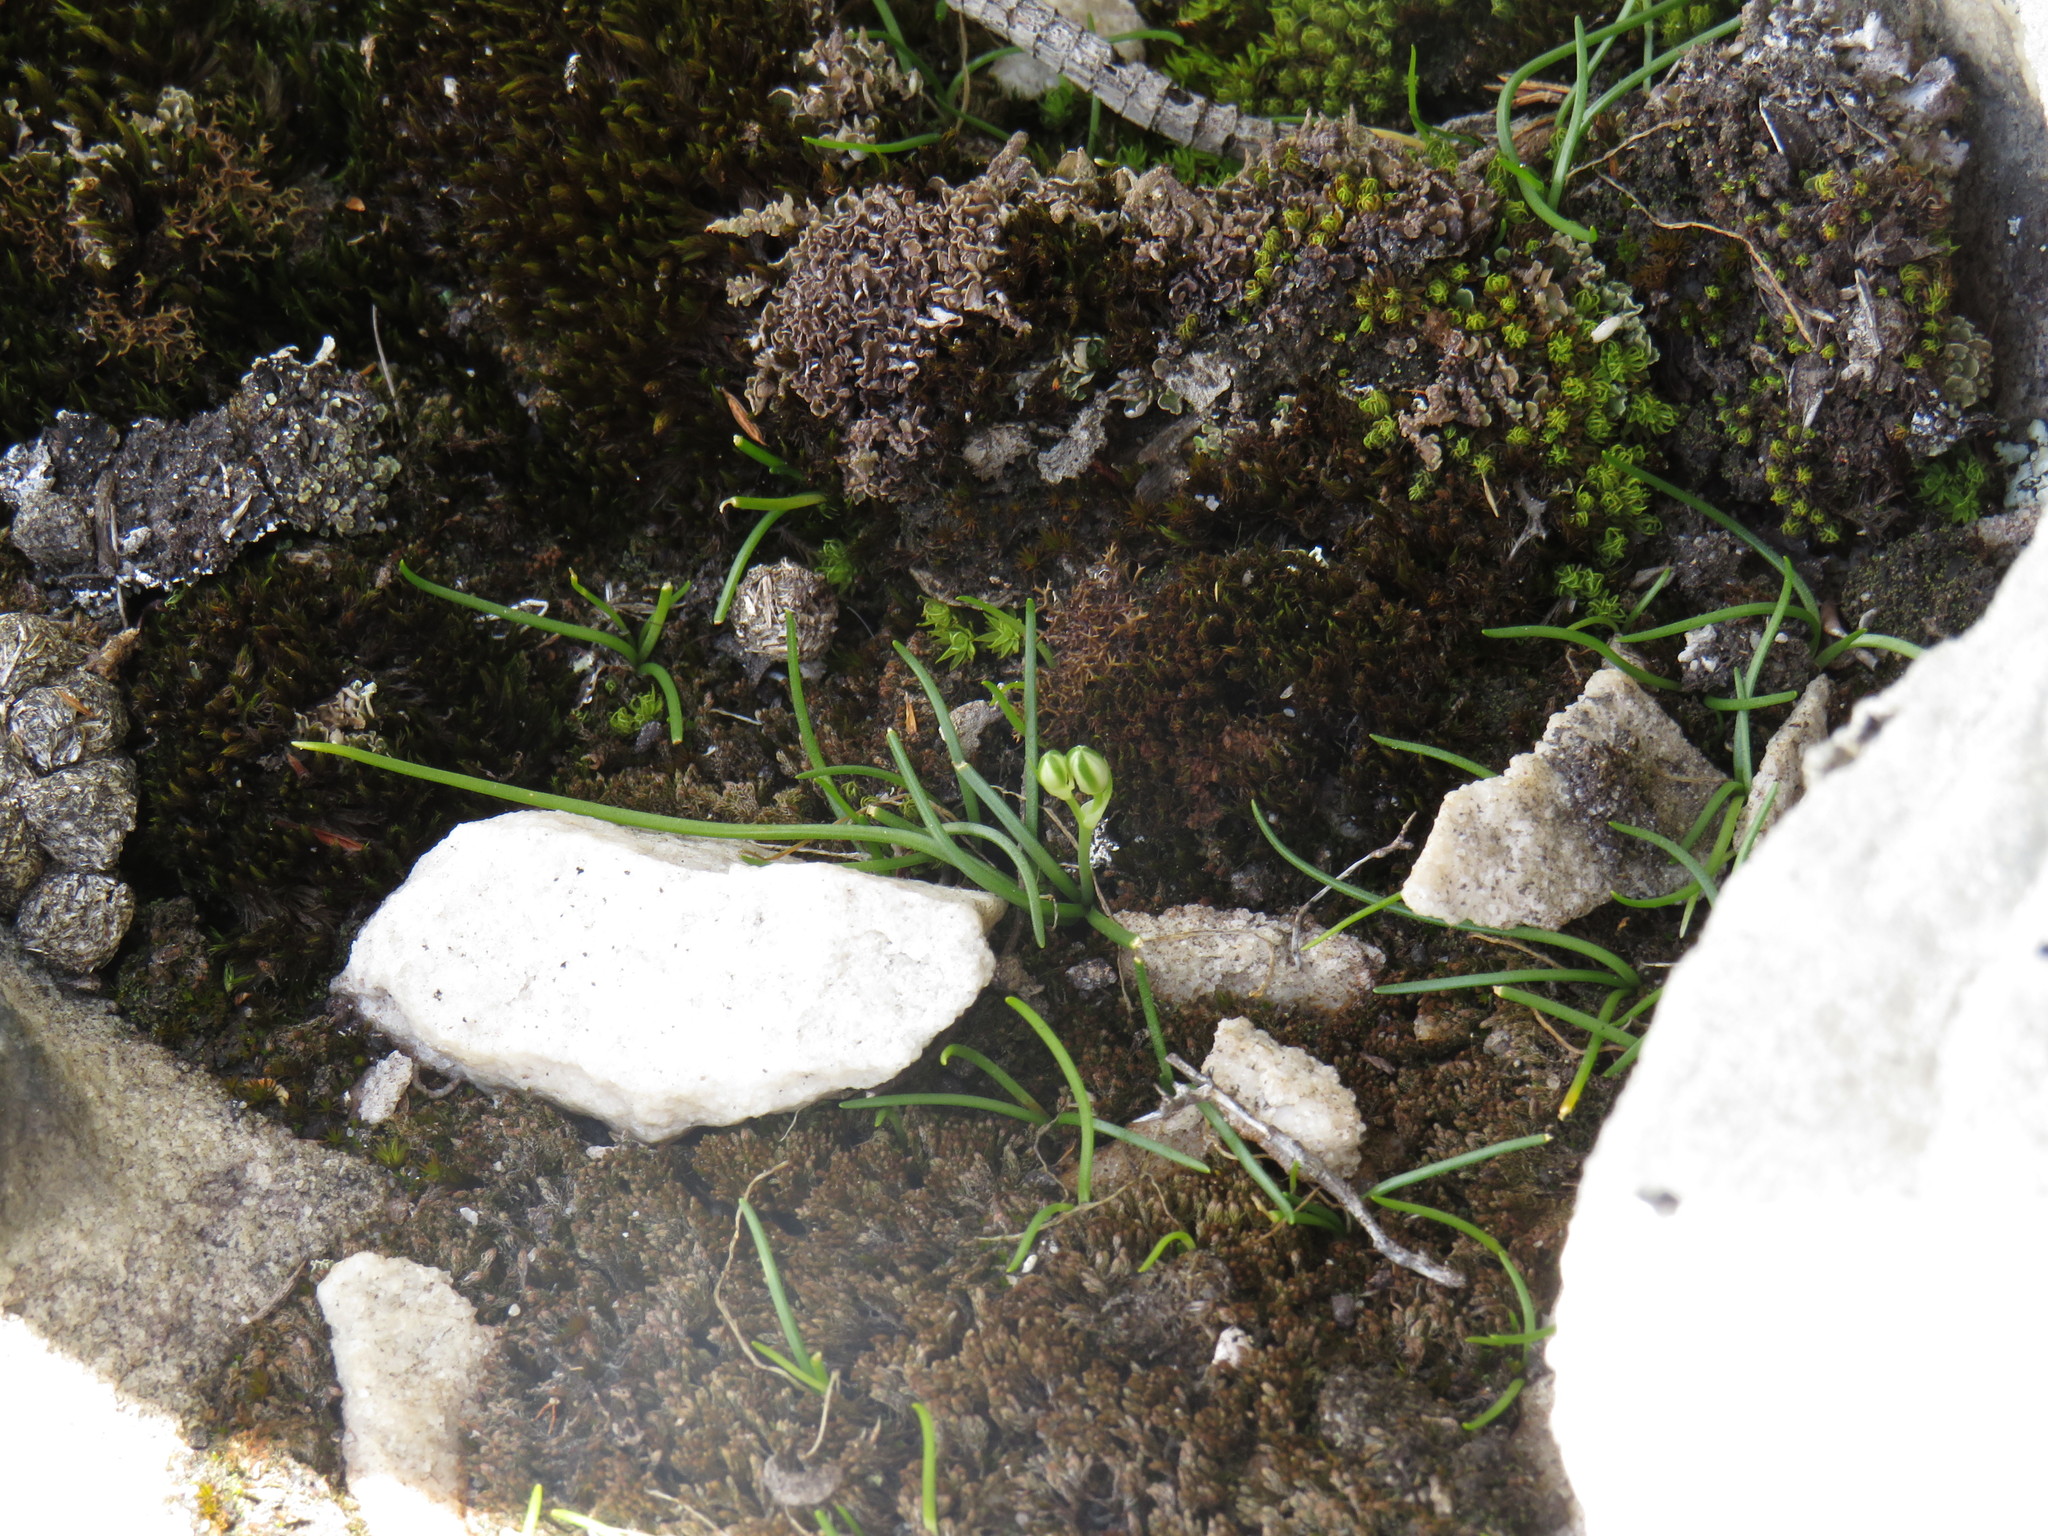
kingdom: Plantae
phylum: Tracheophyta
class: Liliopsida
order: Asparagales
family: Asparagaceae
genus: Ornithogalum
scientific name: Ornithogalum niveum
